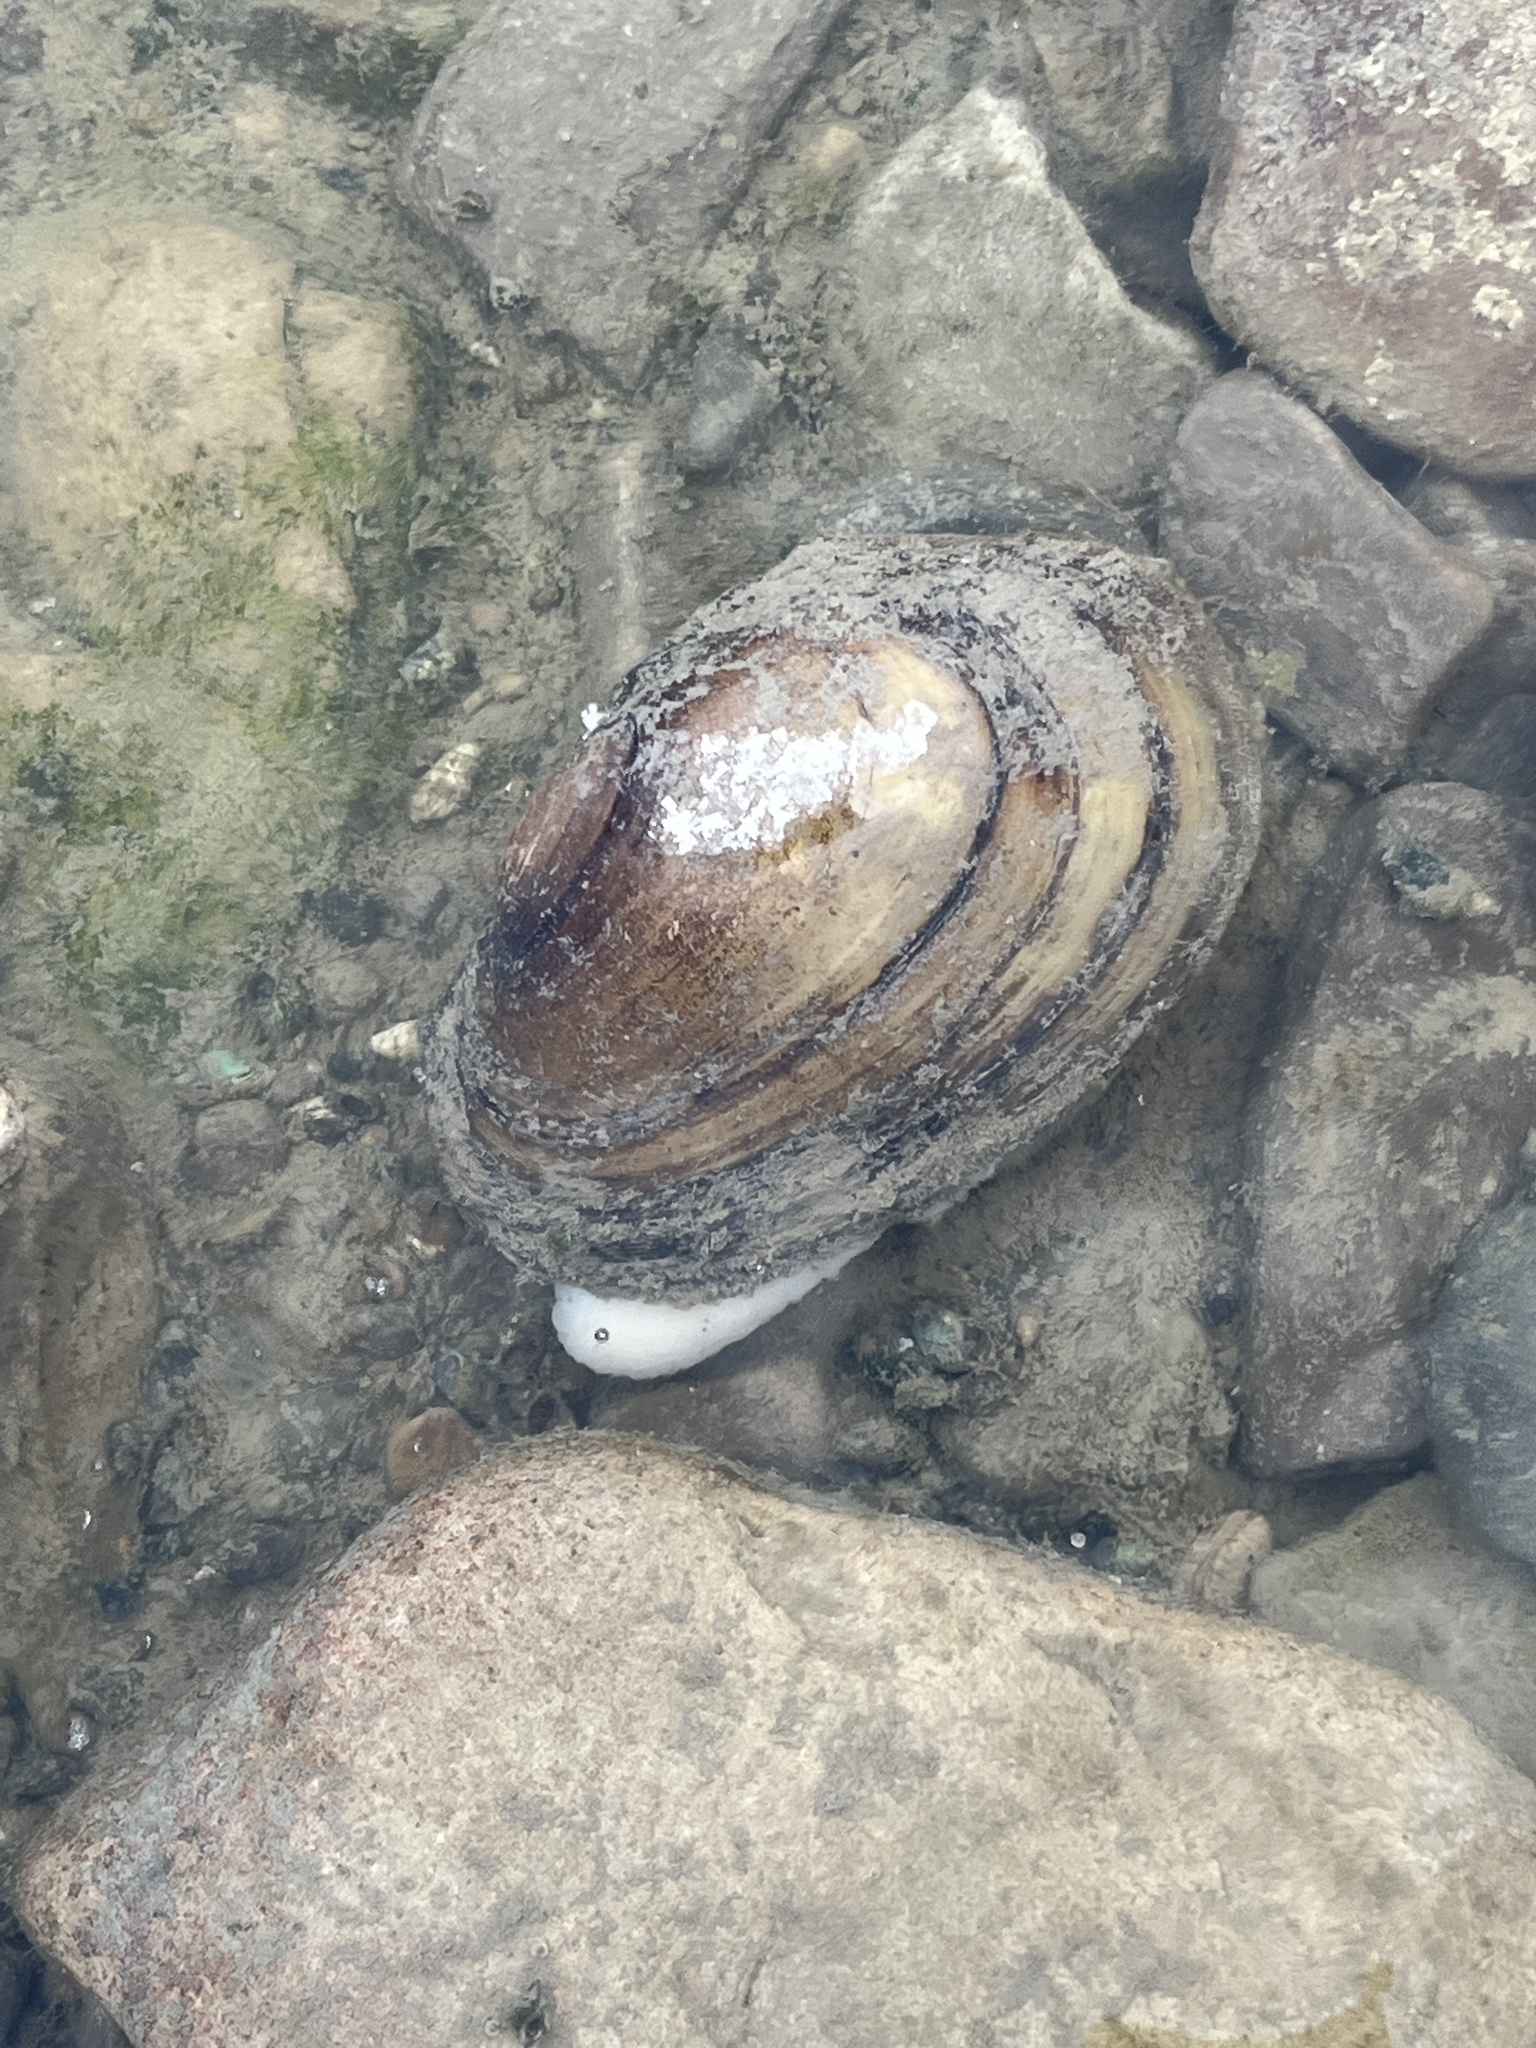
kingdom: Animalia
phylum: Mollusca
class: Bivalvia
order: Unionida
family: Unionidae
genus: Potamilus
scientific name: Potamilus fragilis
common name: Fragile papershell
